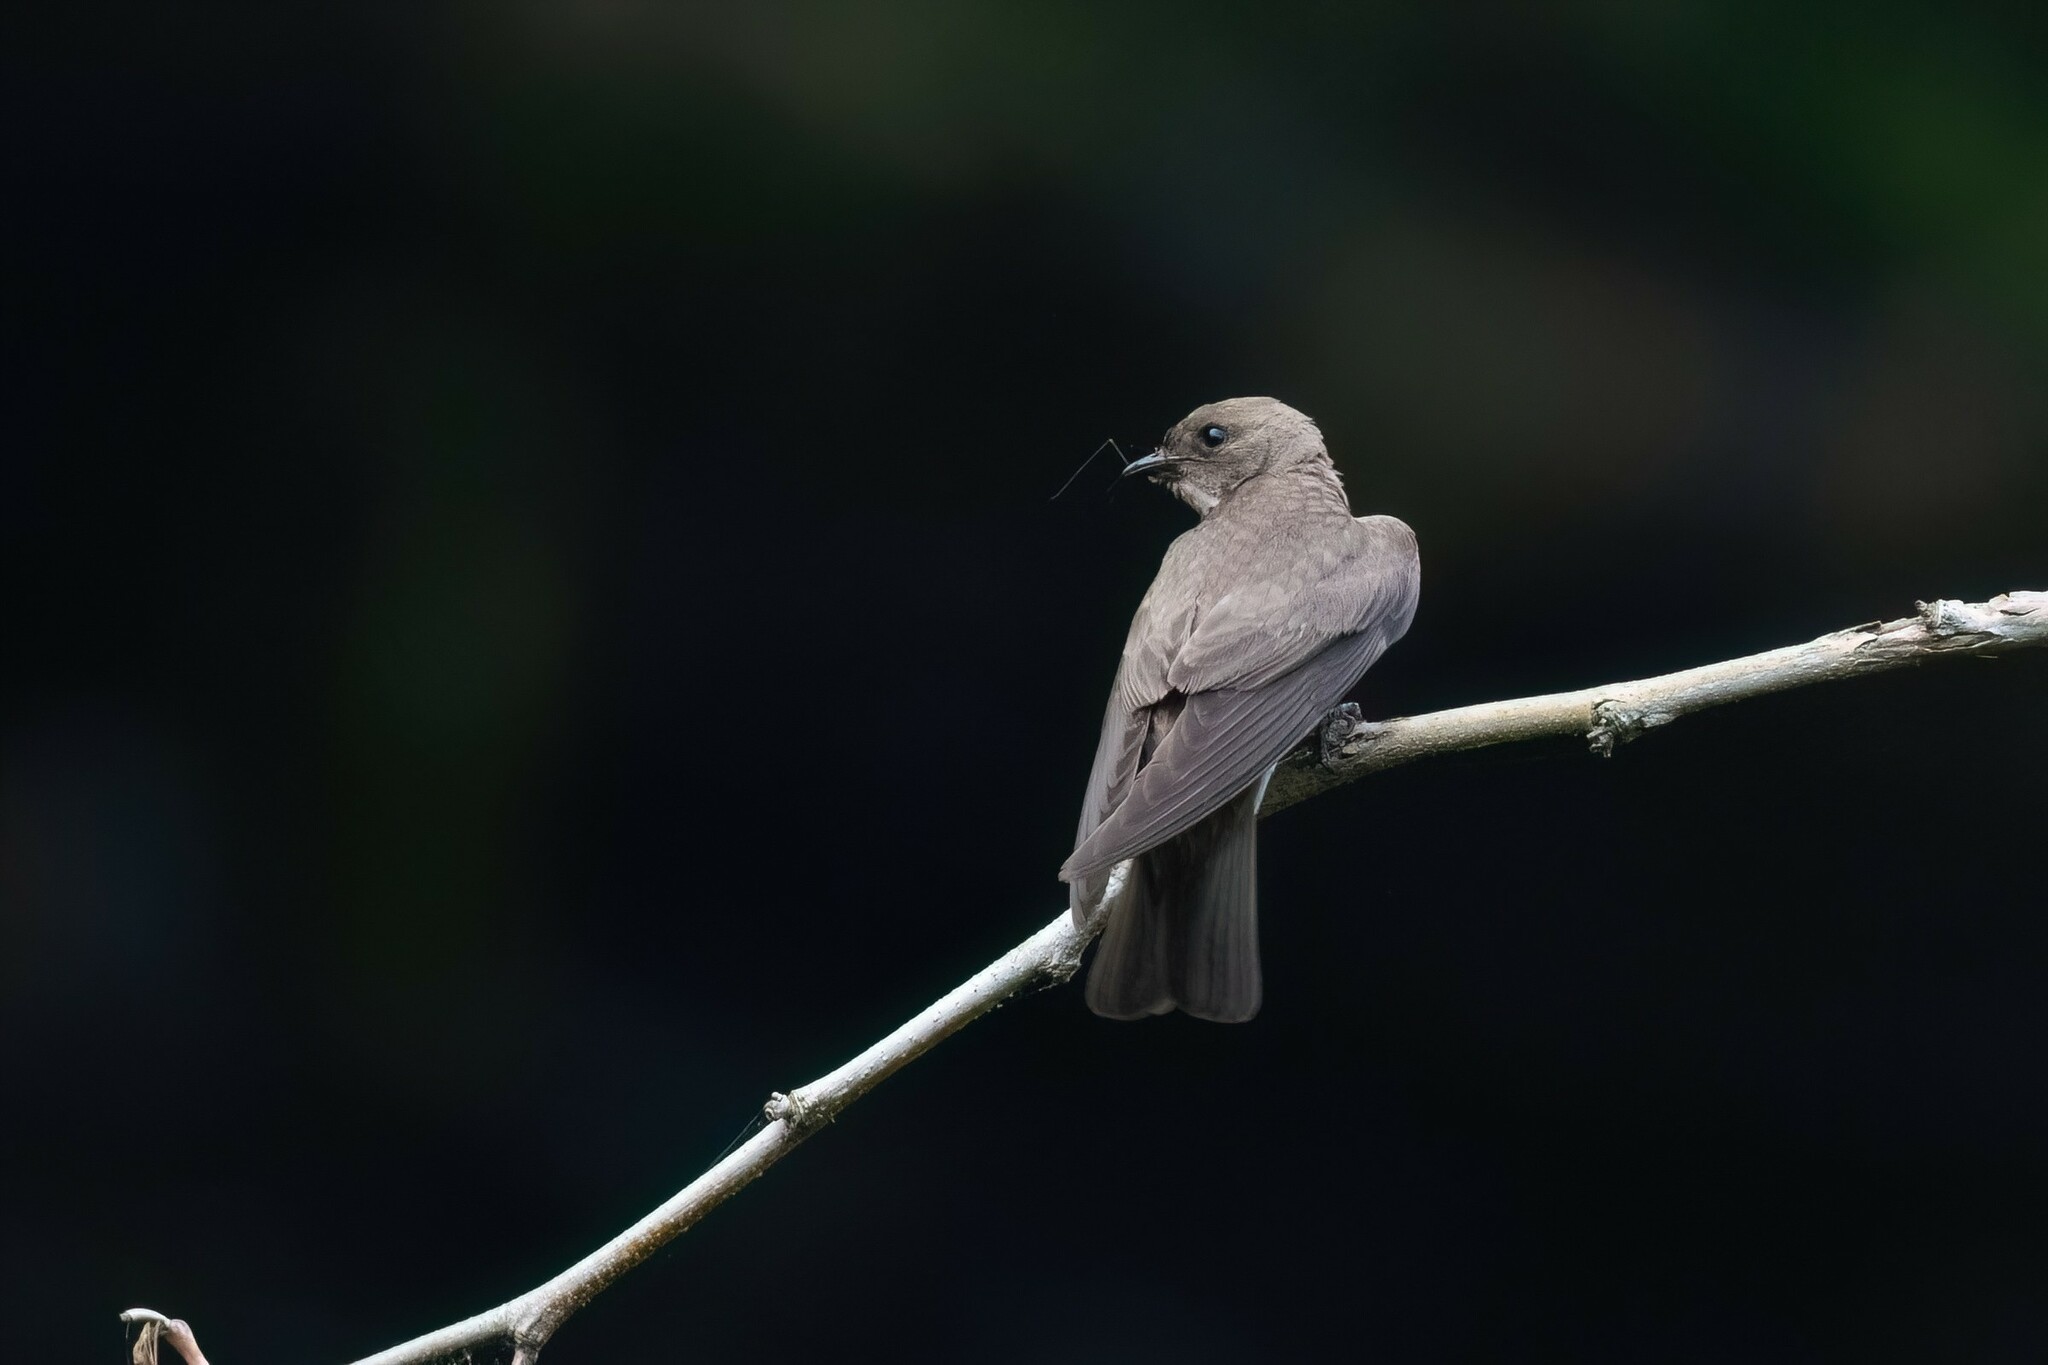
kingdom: Animalia
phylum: Chordata
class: Aves
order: Passeriformes
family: Hirundinidae
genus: Stelgidopteryx
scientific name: Stelgidopteryx serripennis
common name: Northern rough-winged swallow
